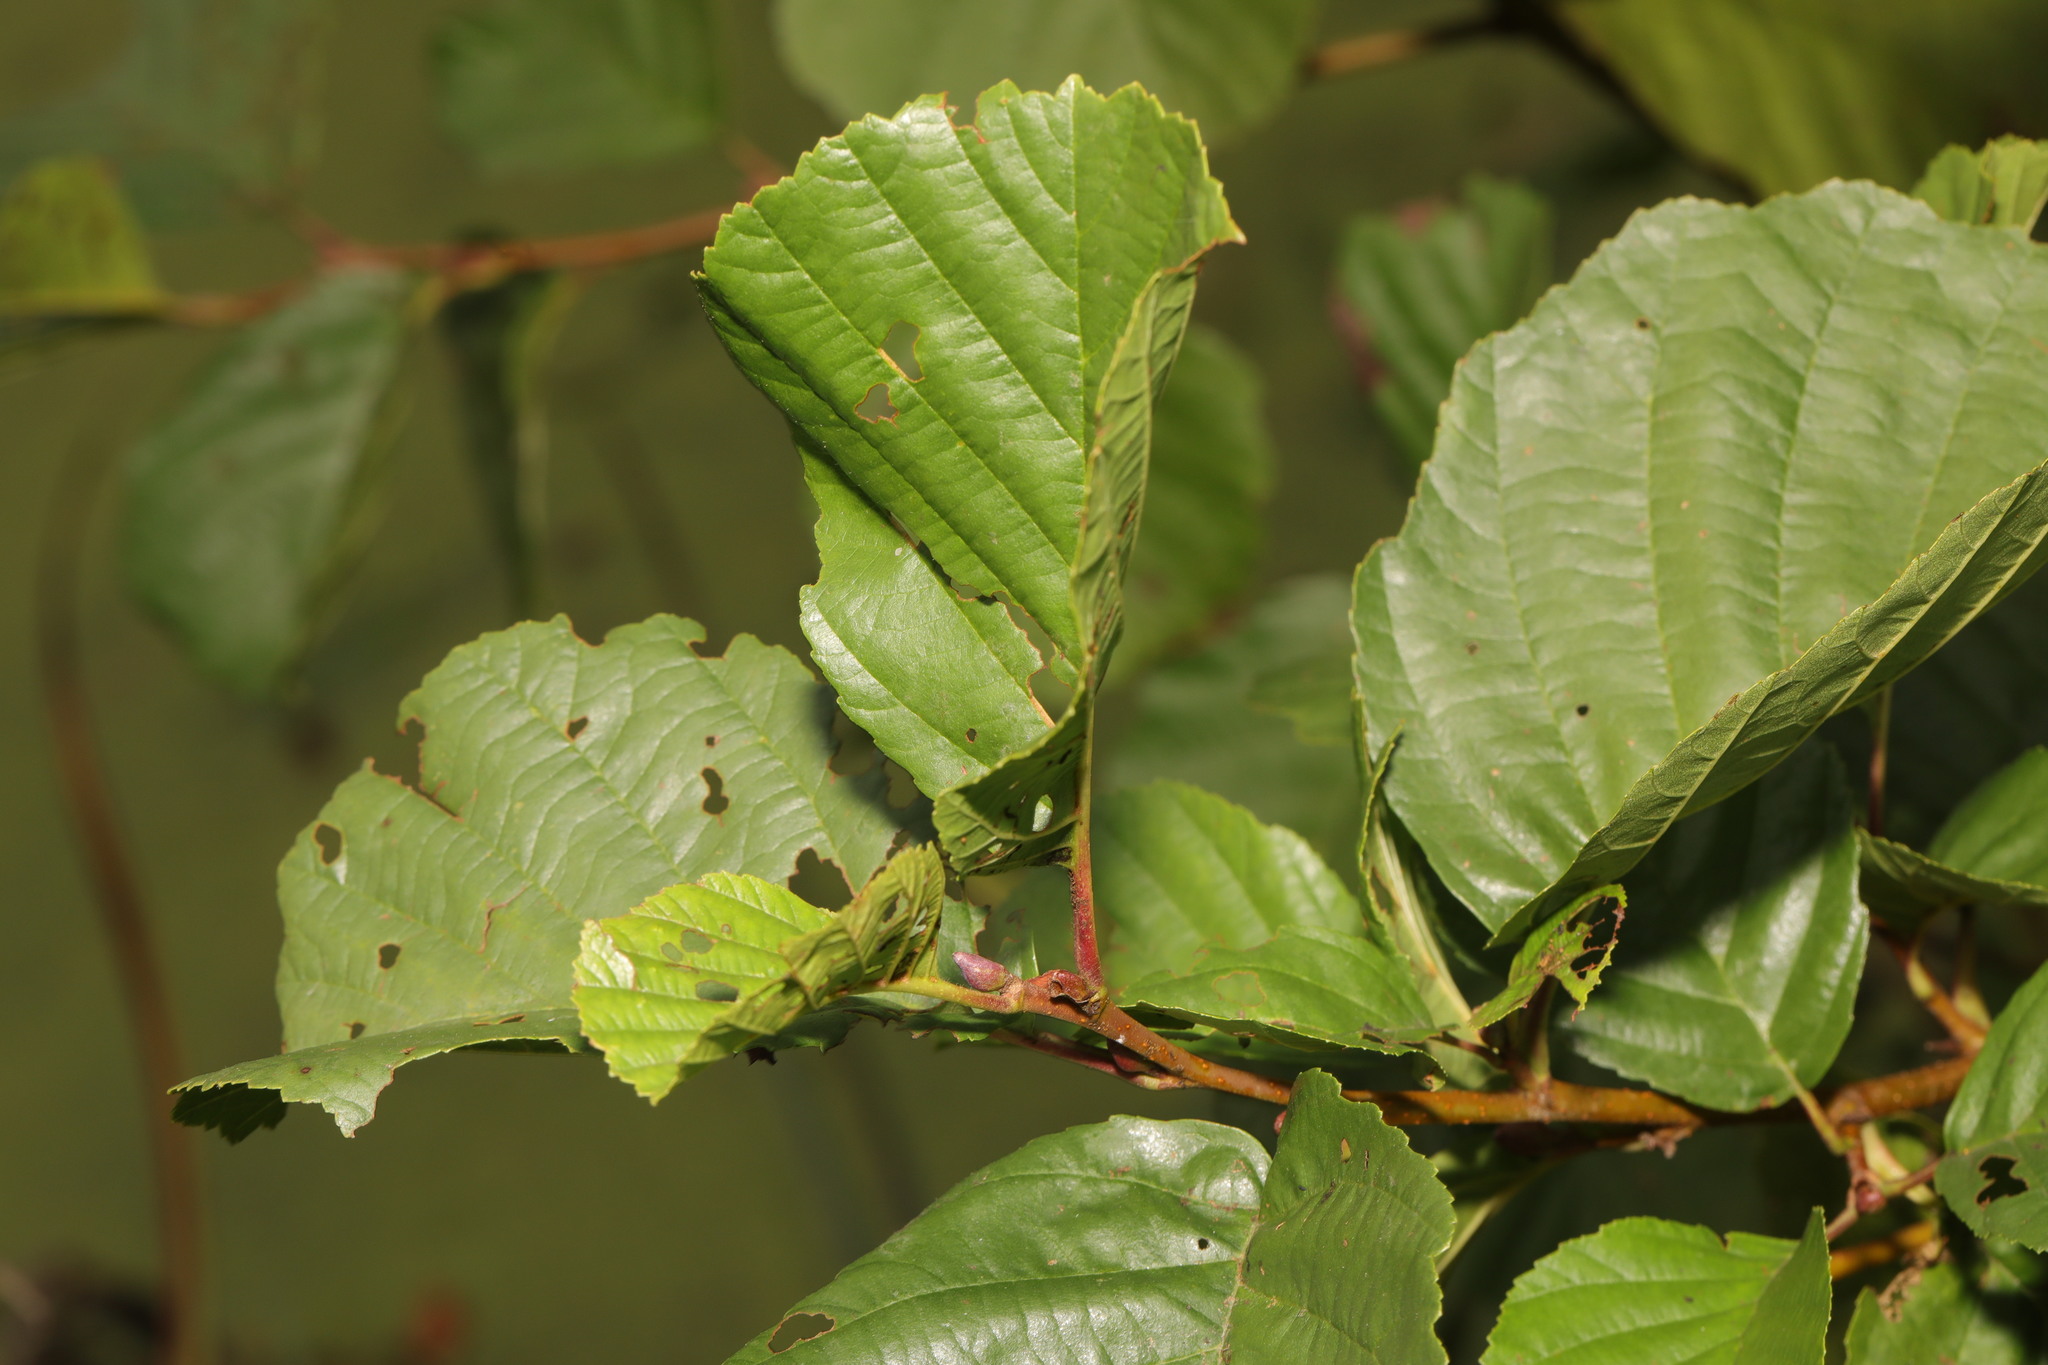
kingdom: Plantae
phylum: Tracheophyta
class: Magnoliopsida
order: Fagales
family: Betulaceae
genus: Alnus
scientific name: Alnus glutinosa
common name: Black alder
